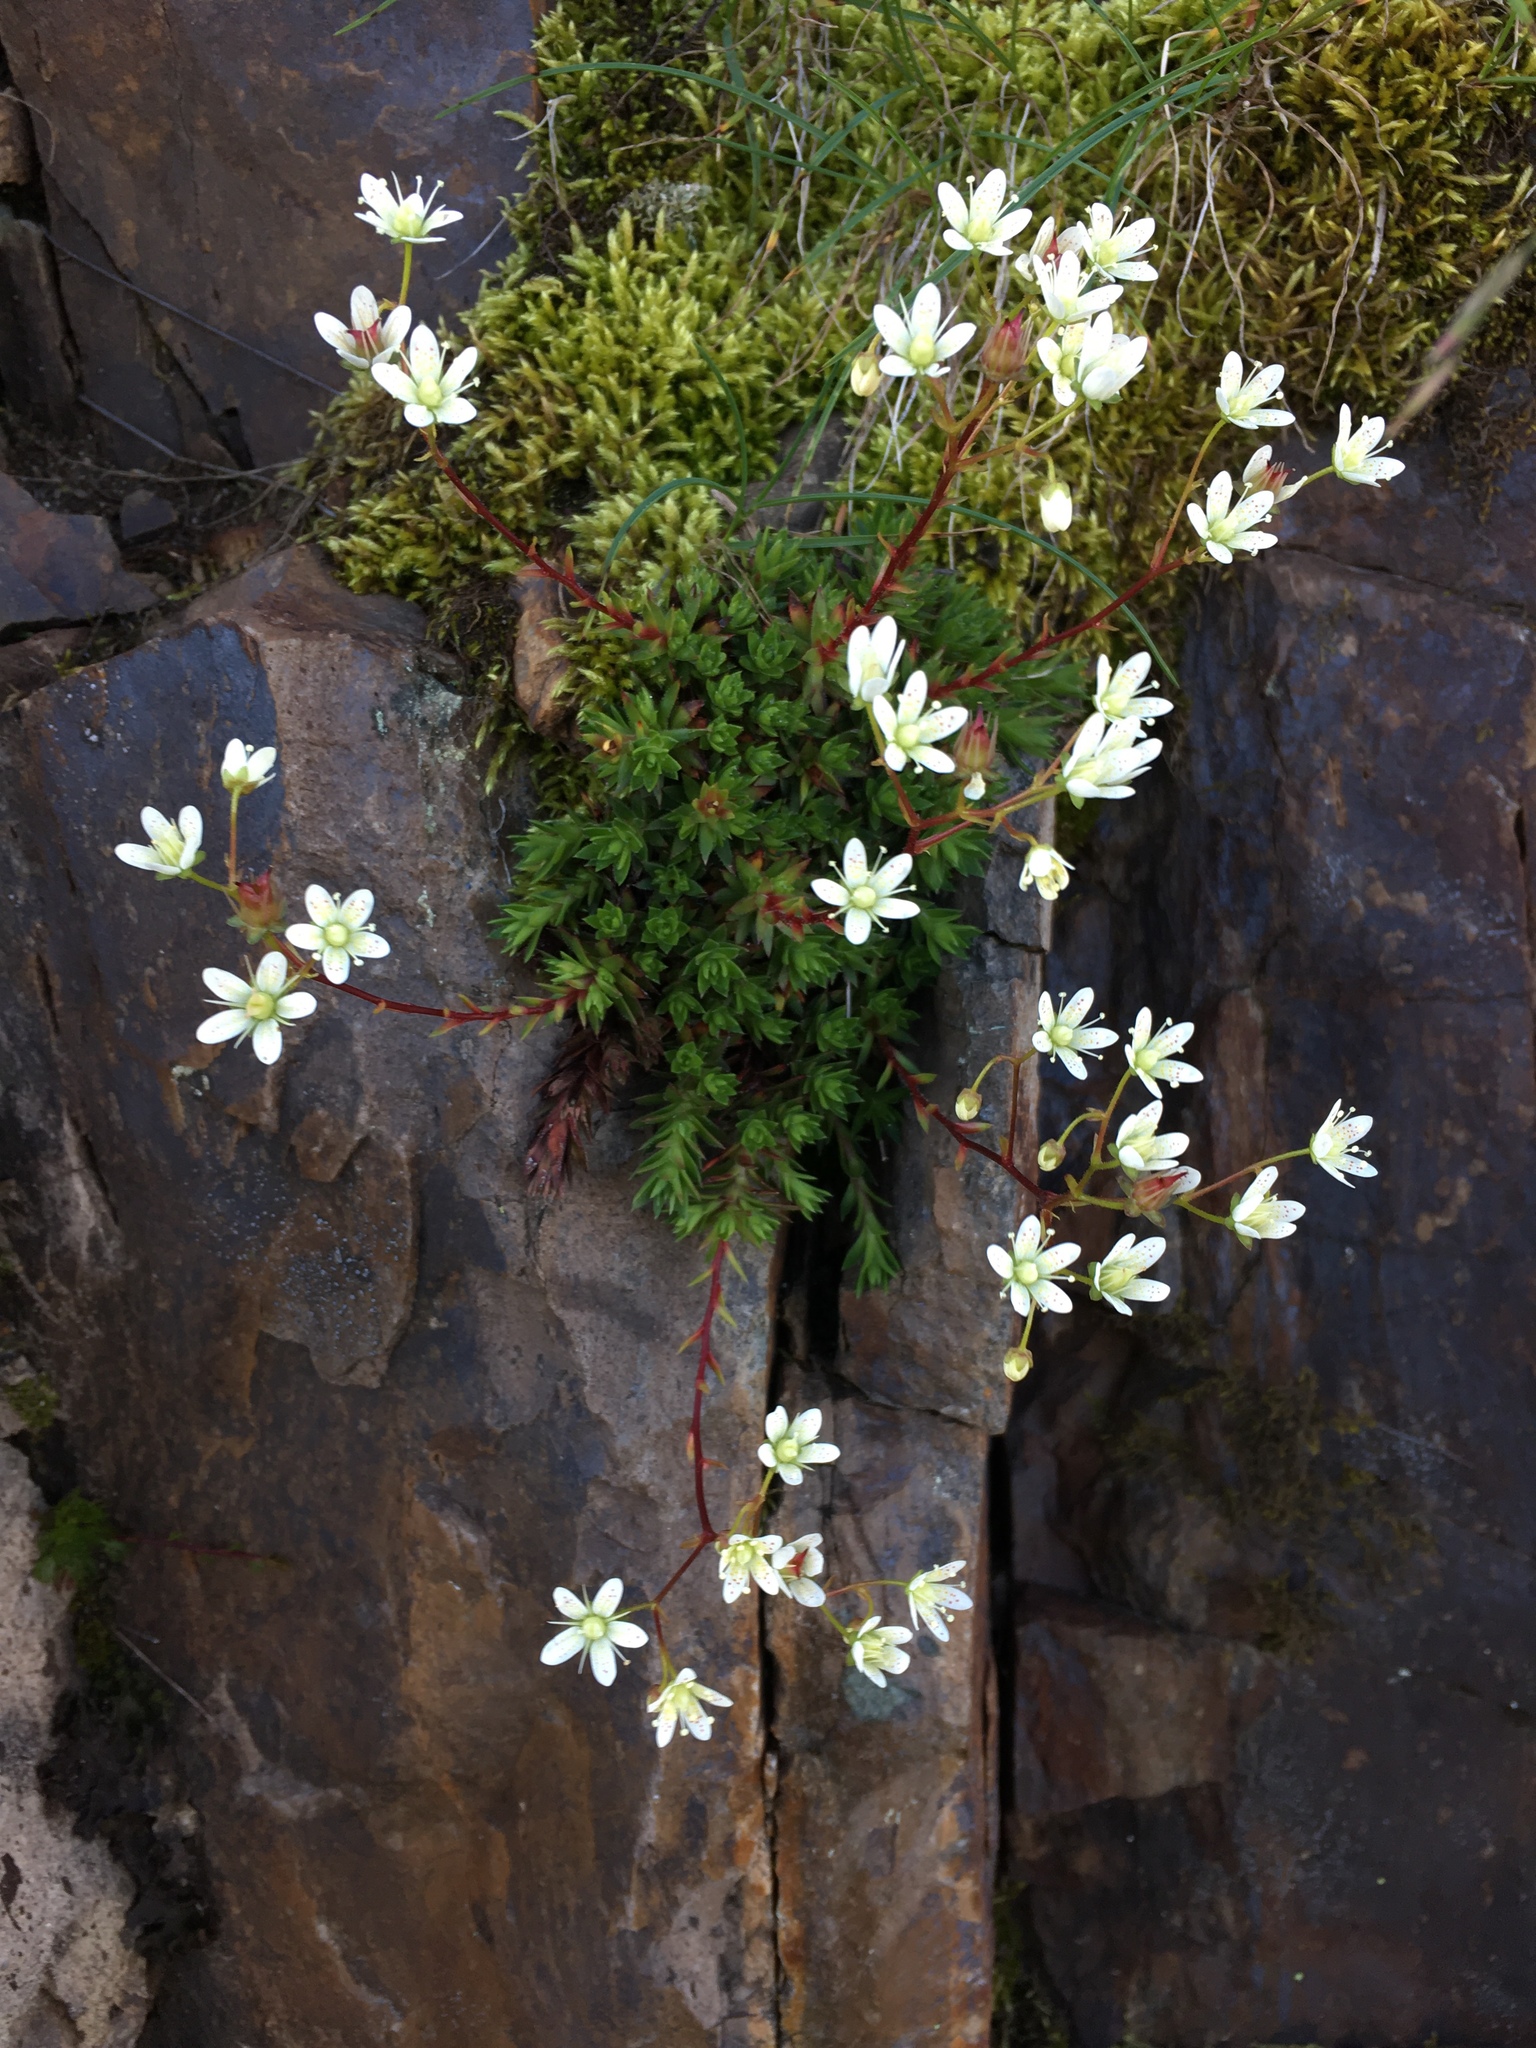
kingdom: Plantae
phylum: Tracheophyta
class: Magnoliopsida
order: Saxifragales
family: Saxifragaceae
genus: Saxifraga
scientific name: Saxifraga bronchialis
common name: Matted saxifrage
